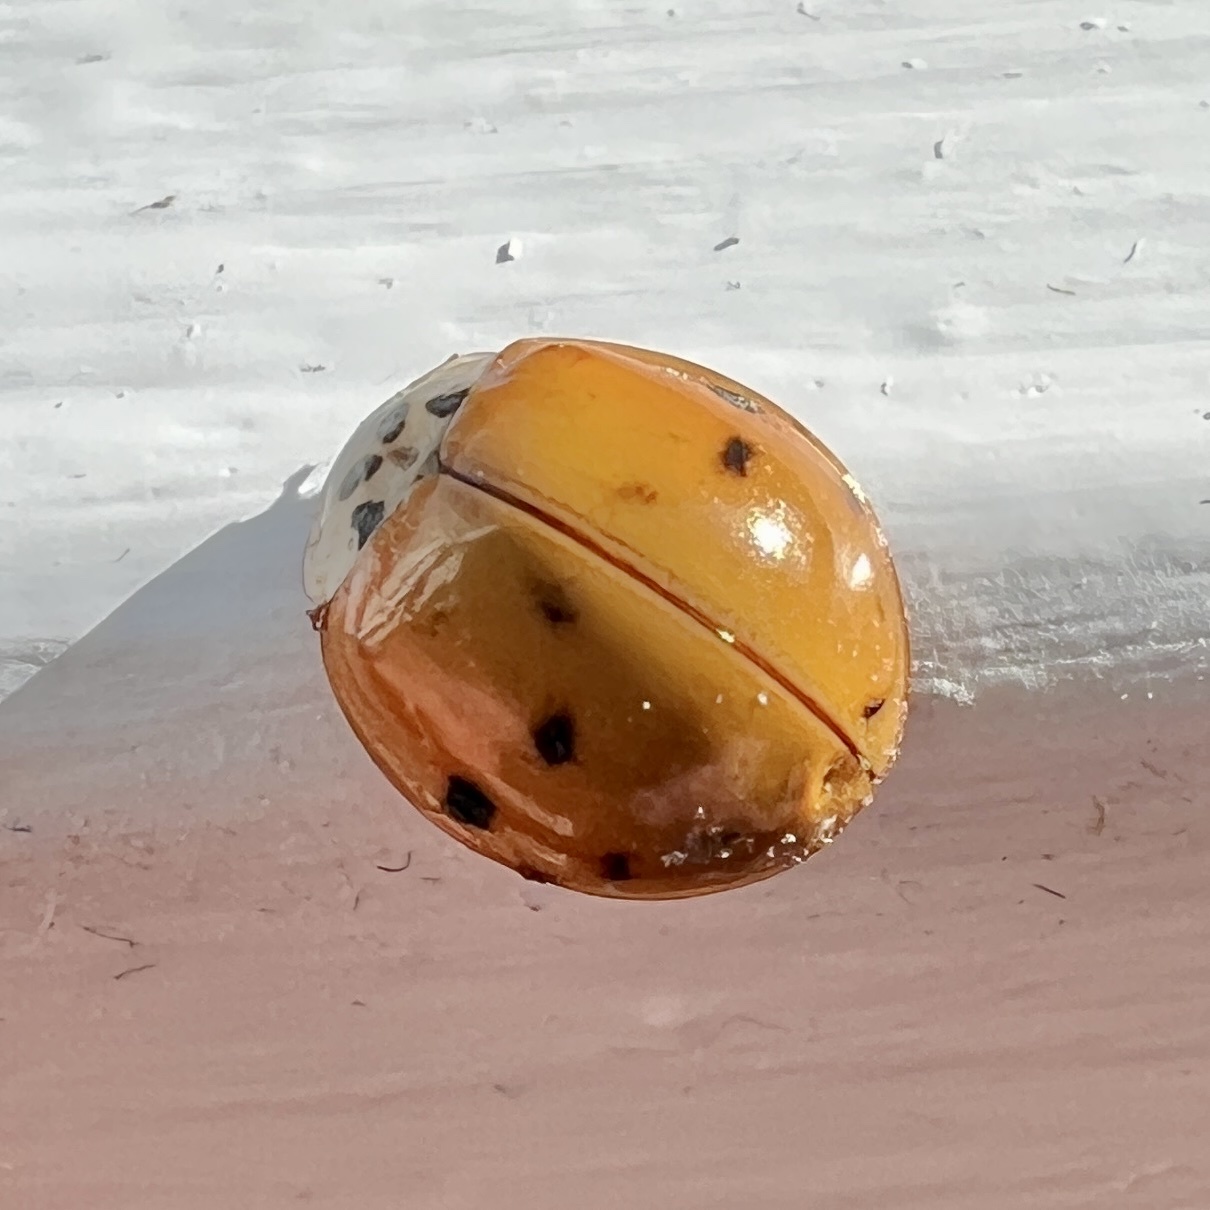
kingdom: Animalia
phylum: Arthropoda
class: Insecta
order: Coleoptera
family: Coccinellidae
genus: Harmonia
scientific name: Harmonia axyridis
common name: Harlequin ladybird
